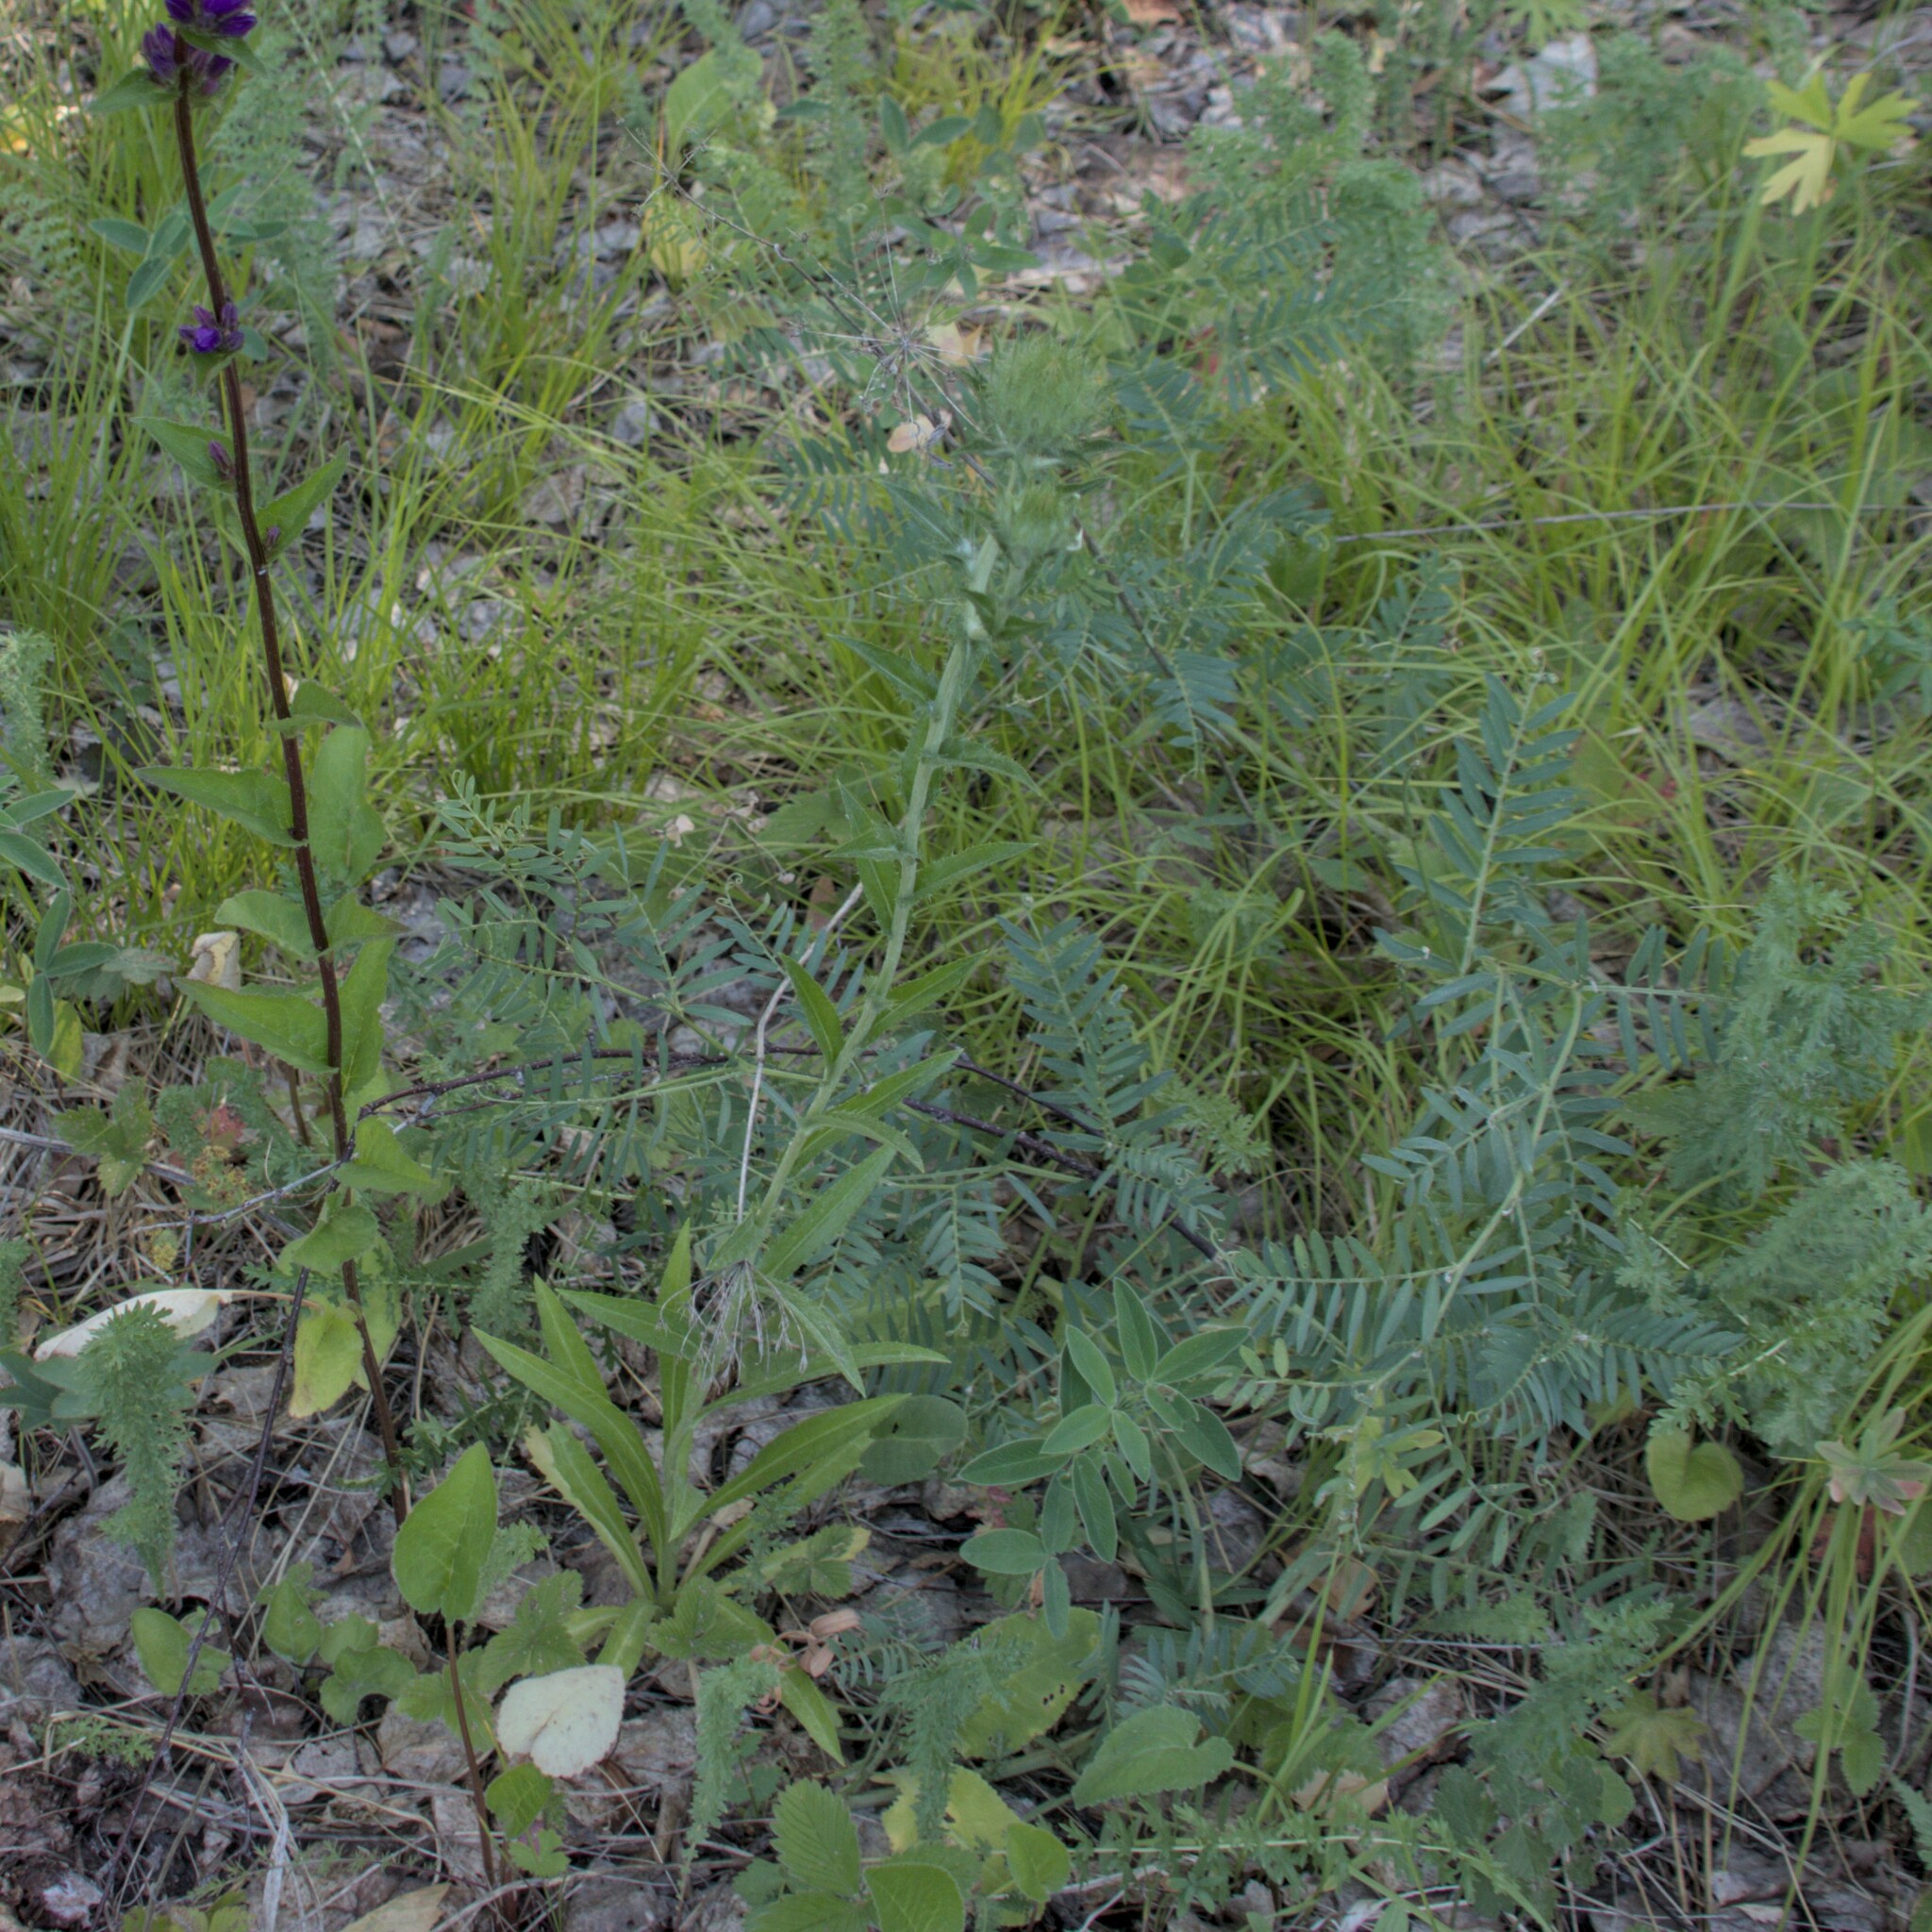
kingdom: Plantae
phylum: Tracheophyta
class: Magnoliopsida
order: Asterales
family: Asteraceae
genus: Carlina
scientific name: Carlina biebersteinii
